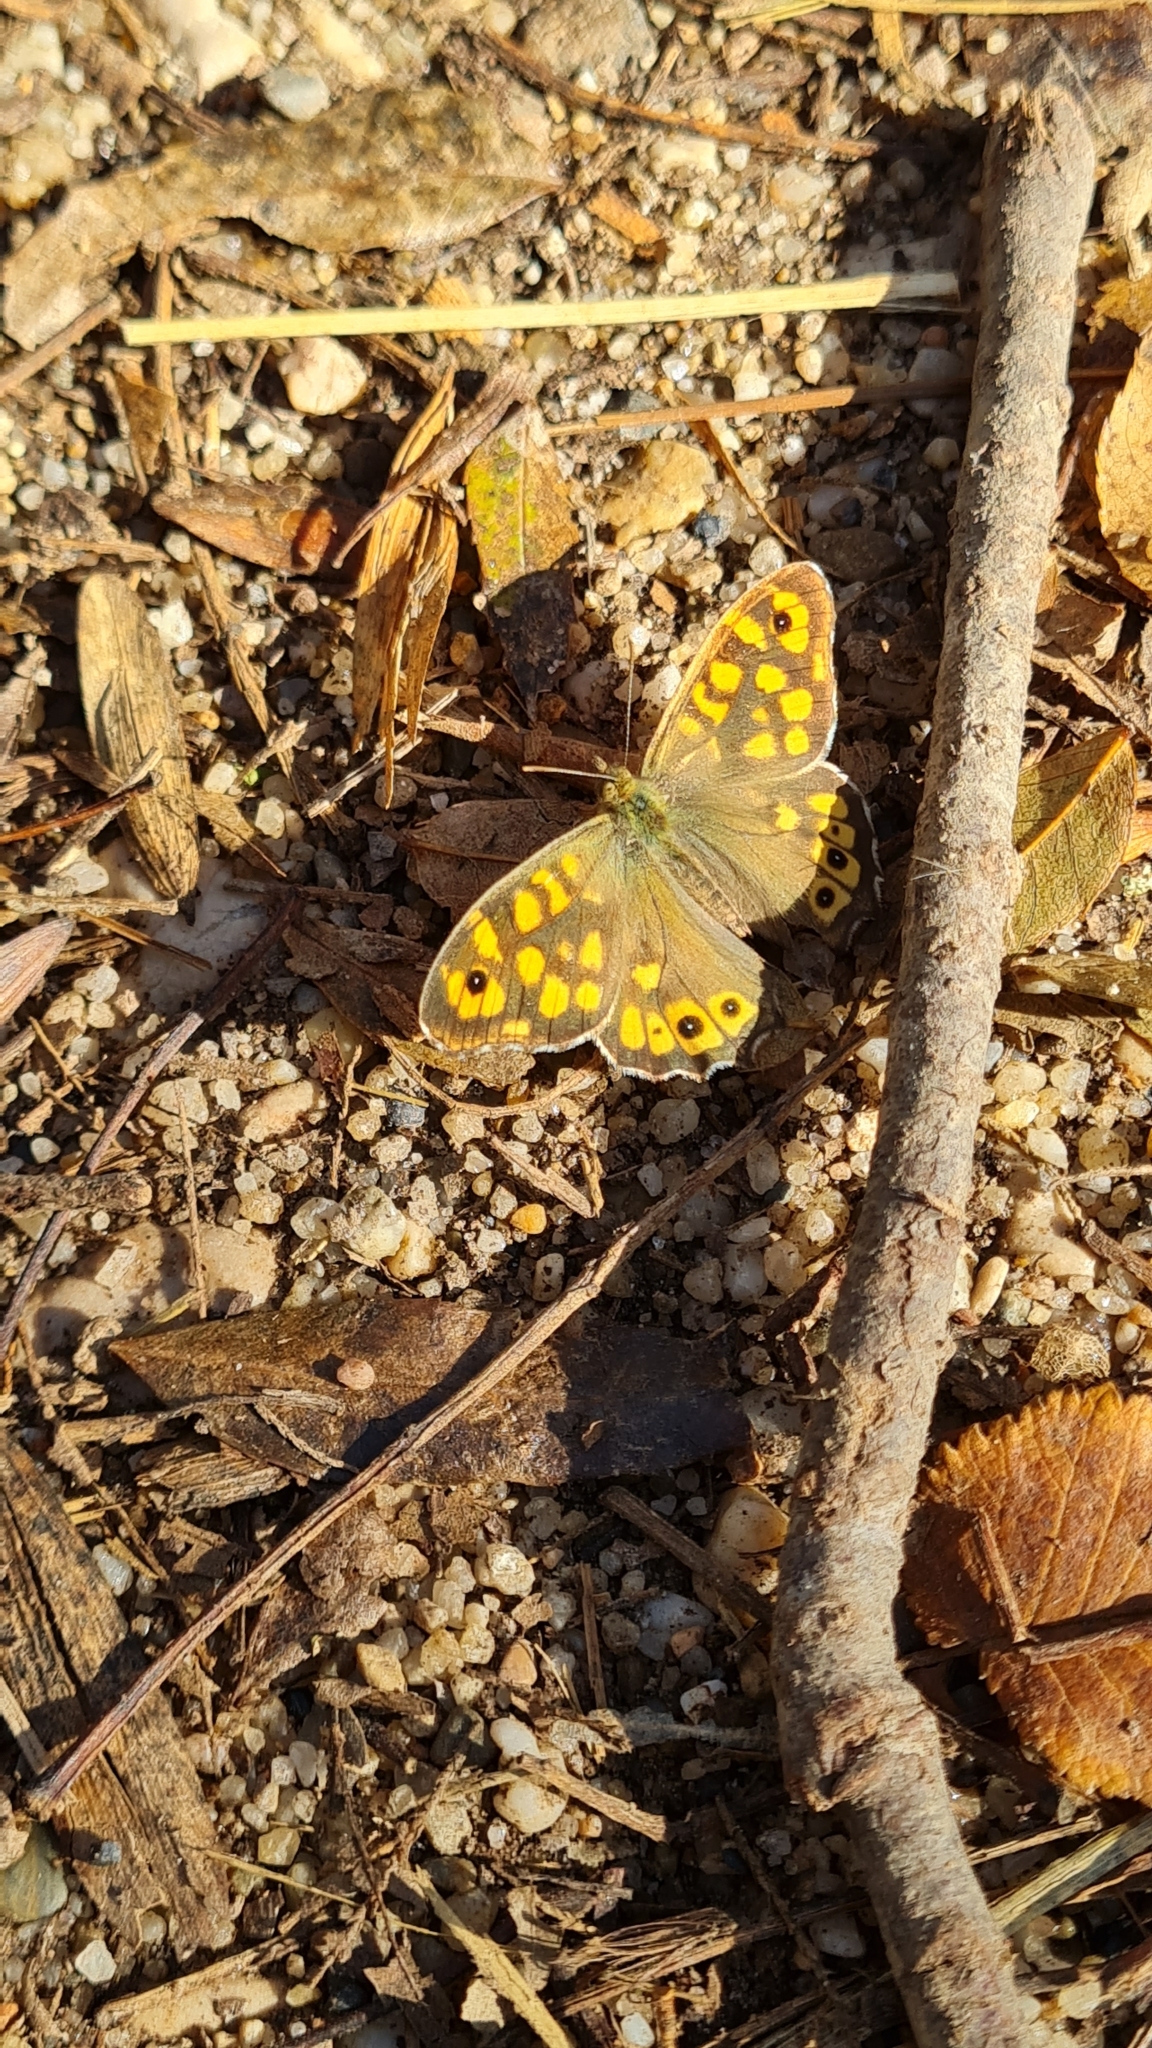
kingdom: Animalia
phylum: Arthropoda
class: Insecta
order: Lepidoptera
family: Nymphalidae
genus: Pararge
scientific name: Pararge aegeria
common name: Speckled wood
